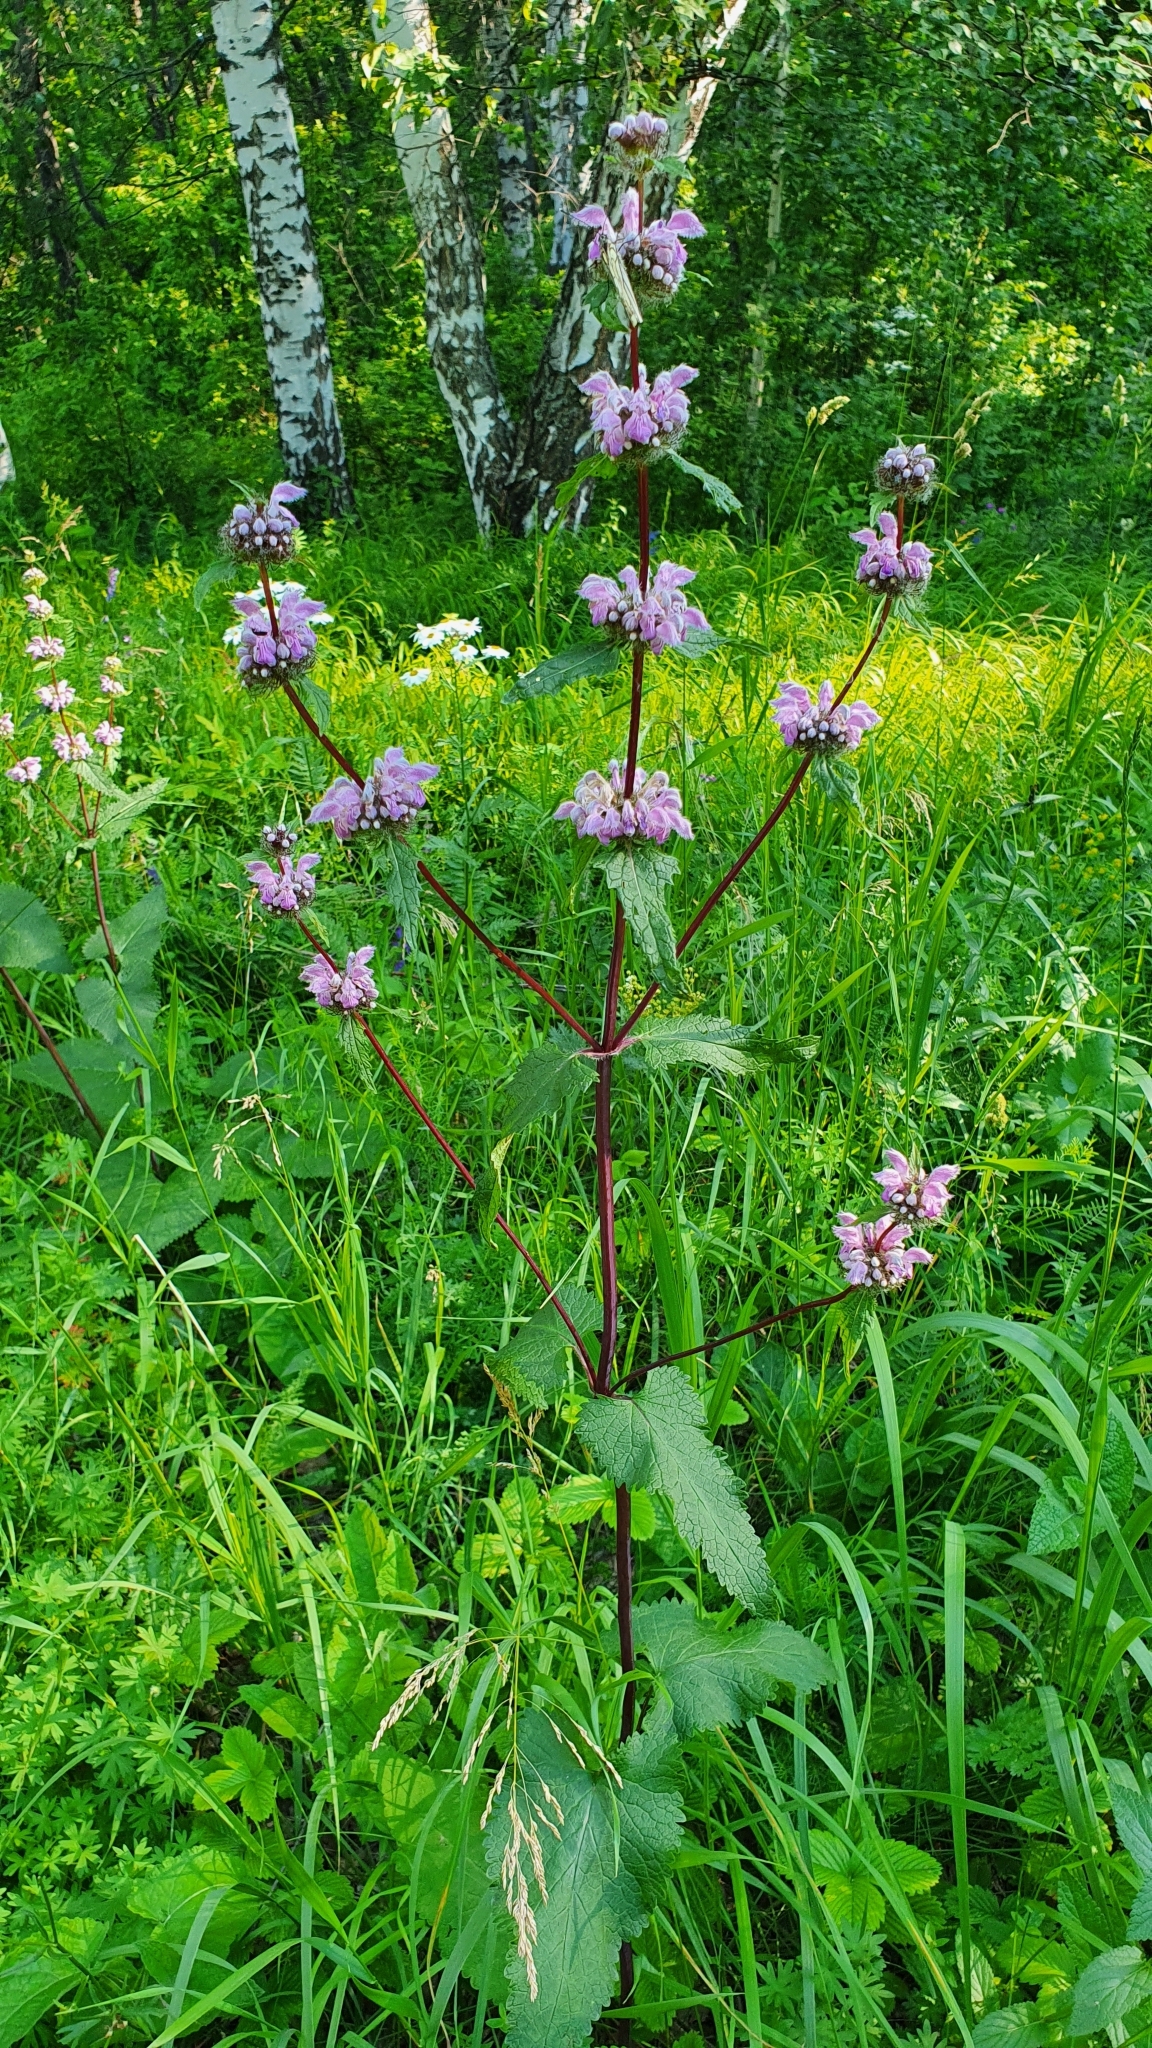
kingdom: Plantae
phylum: Tracheophyta
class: Magnoliopsida
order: Lamiales
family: Lamiaceae
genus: Phlomoides
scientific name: Phlomoides tuberosa
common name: Tuberous jerusalem sage
